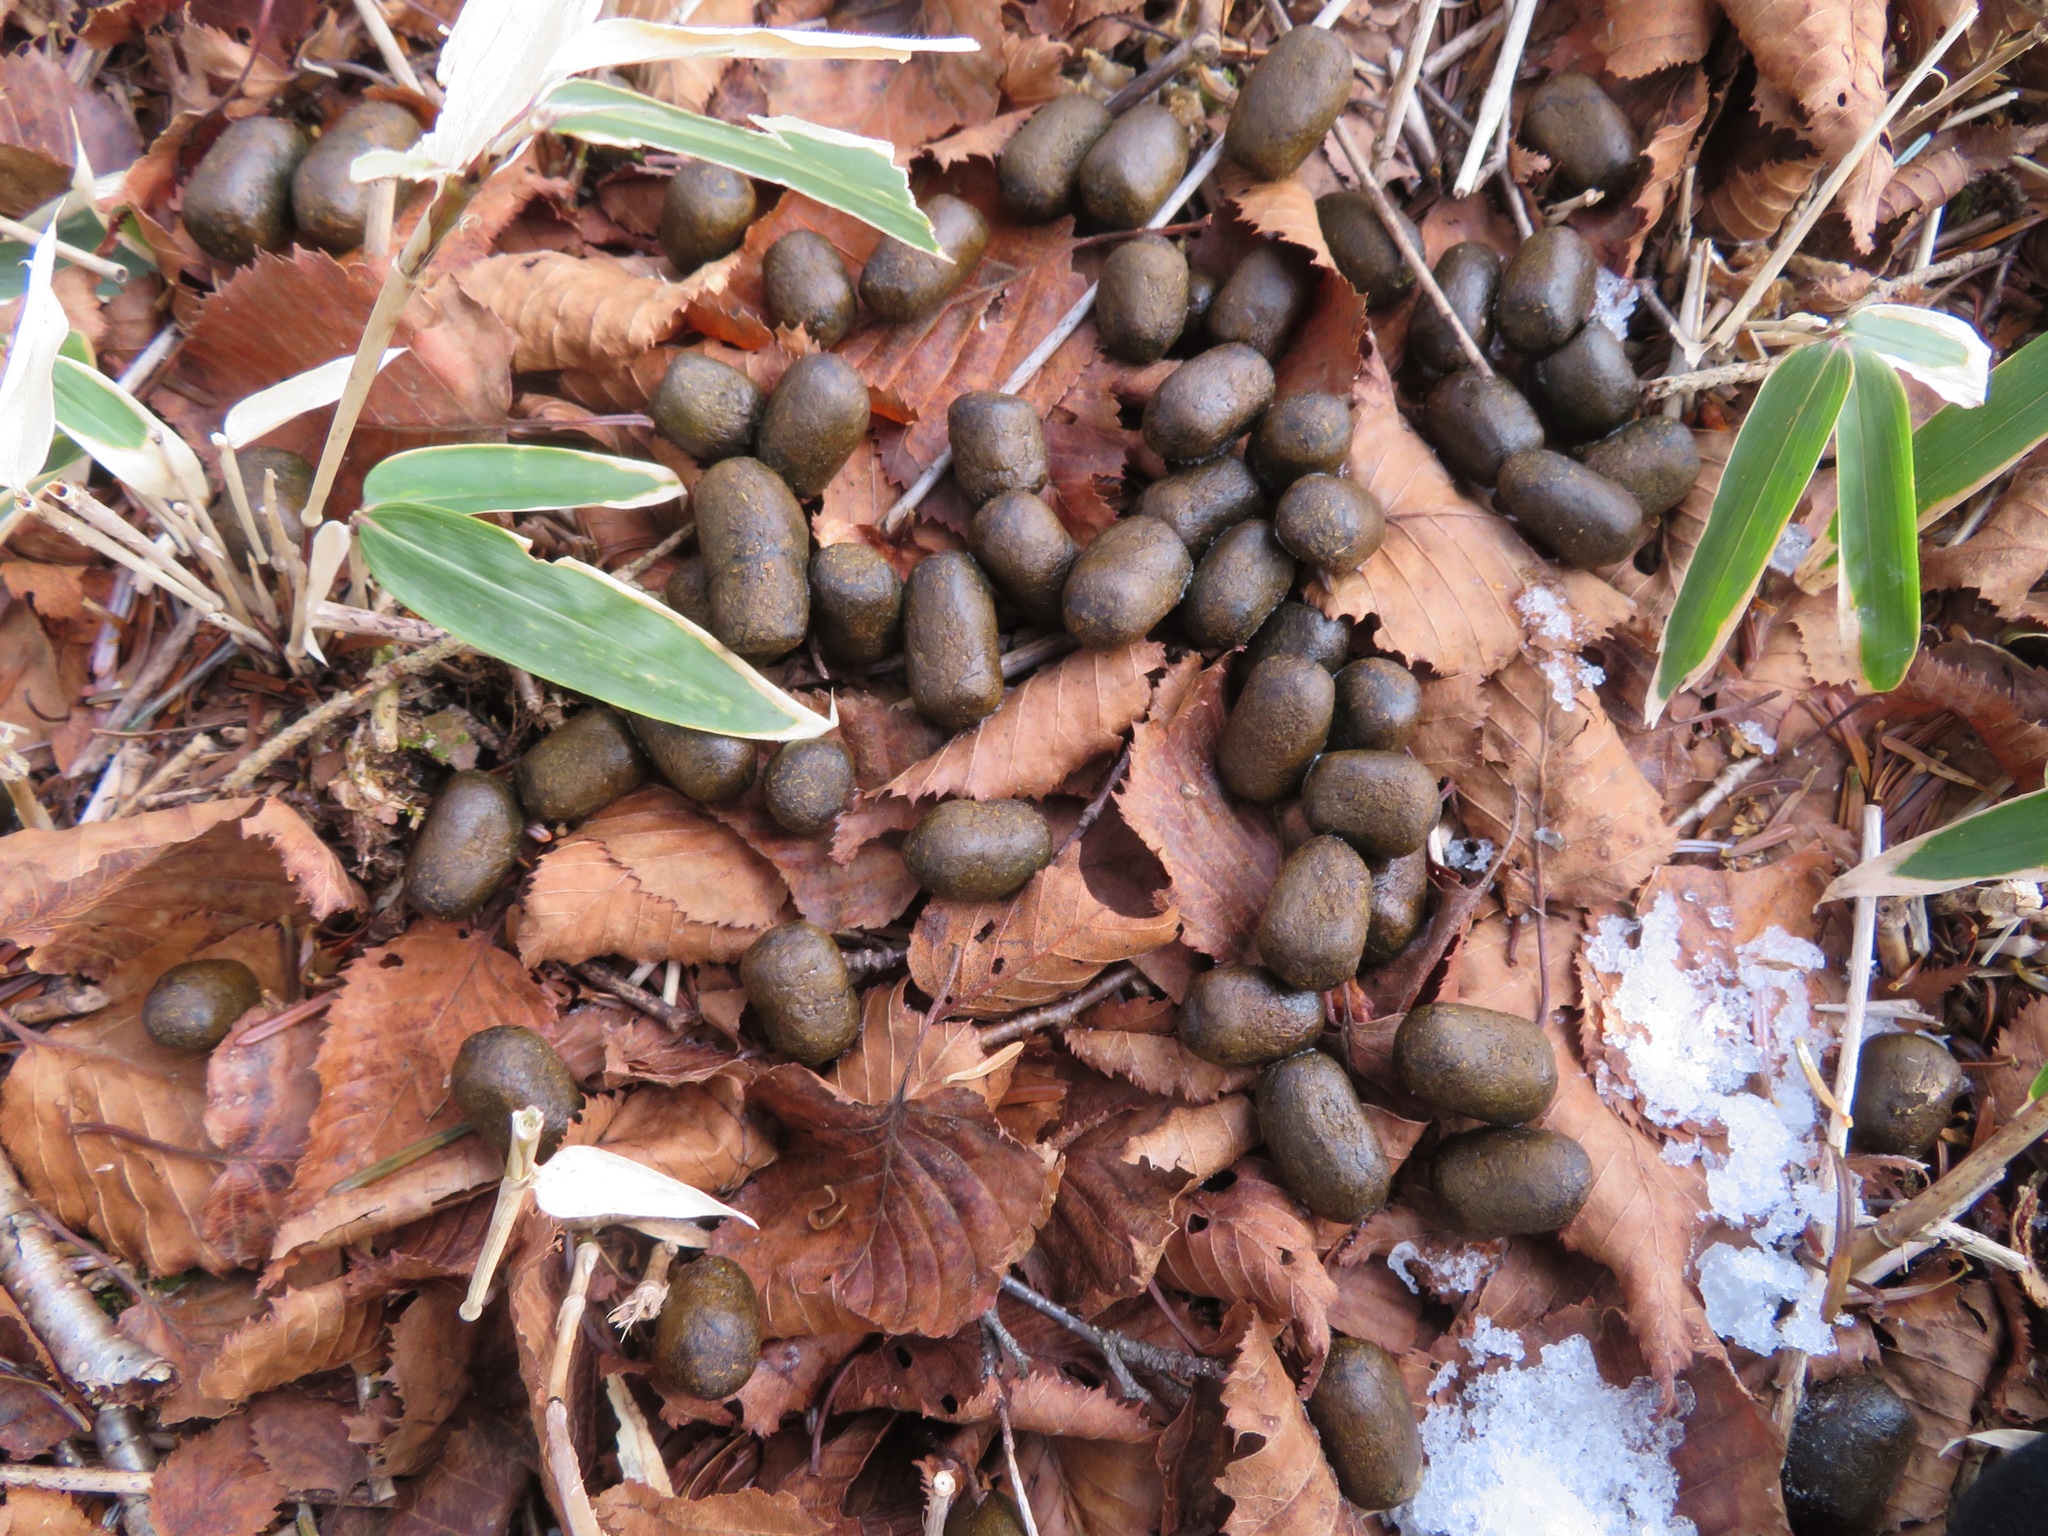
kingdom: Animalia
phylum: Chordata
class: Mammalia
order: Artiodactyla
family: Cervidae
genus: Cervus
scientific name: Cervus nippon
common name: Sika deer
